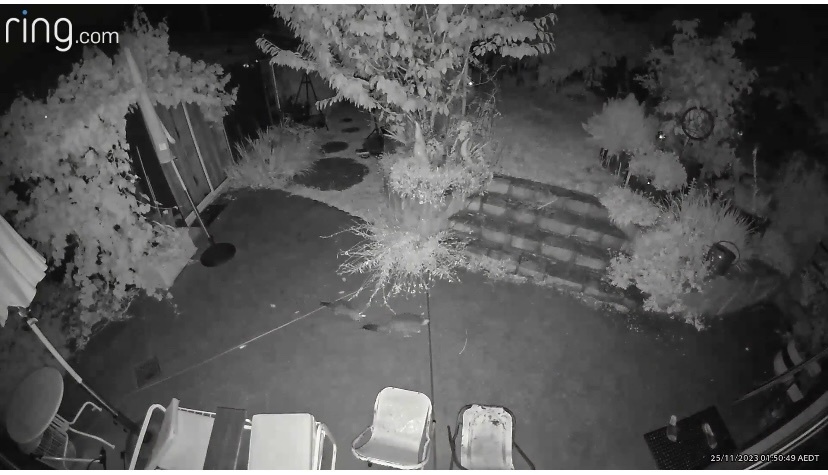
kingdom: Animalia
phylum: Chordata
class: Mammalia
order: Diprotodontia
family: Phalangeridae
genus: Trichosurus
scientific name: Trichosurus vulpecula
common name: Common brushtail
